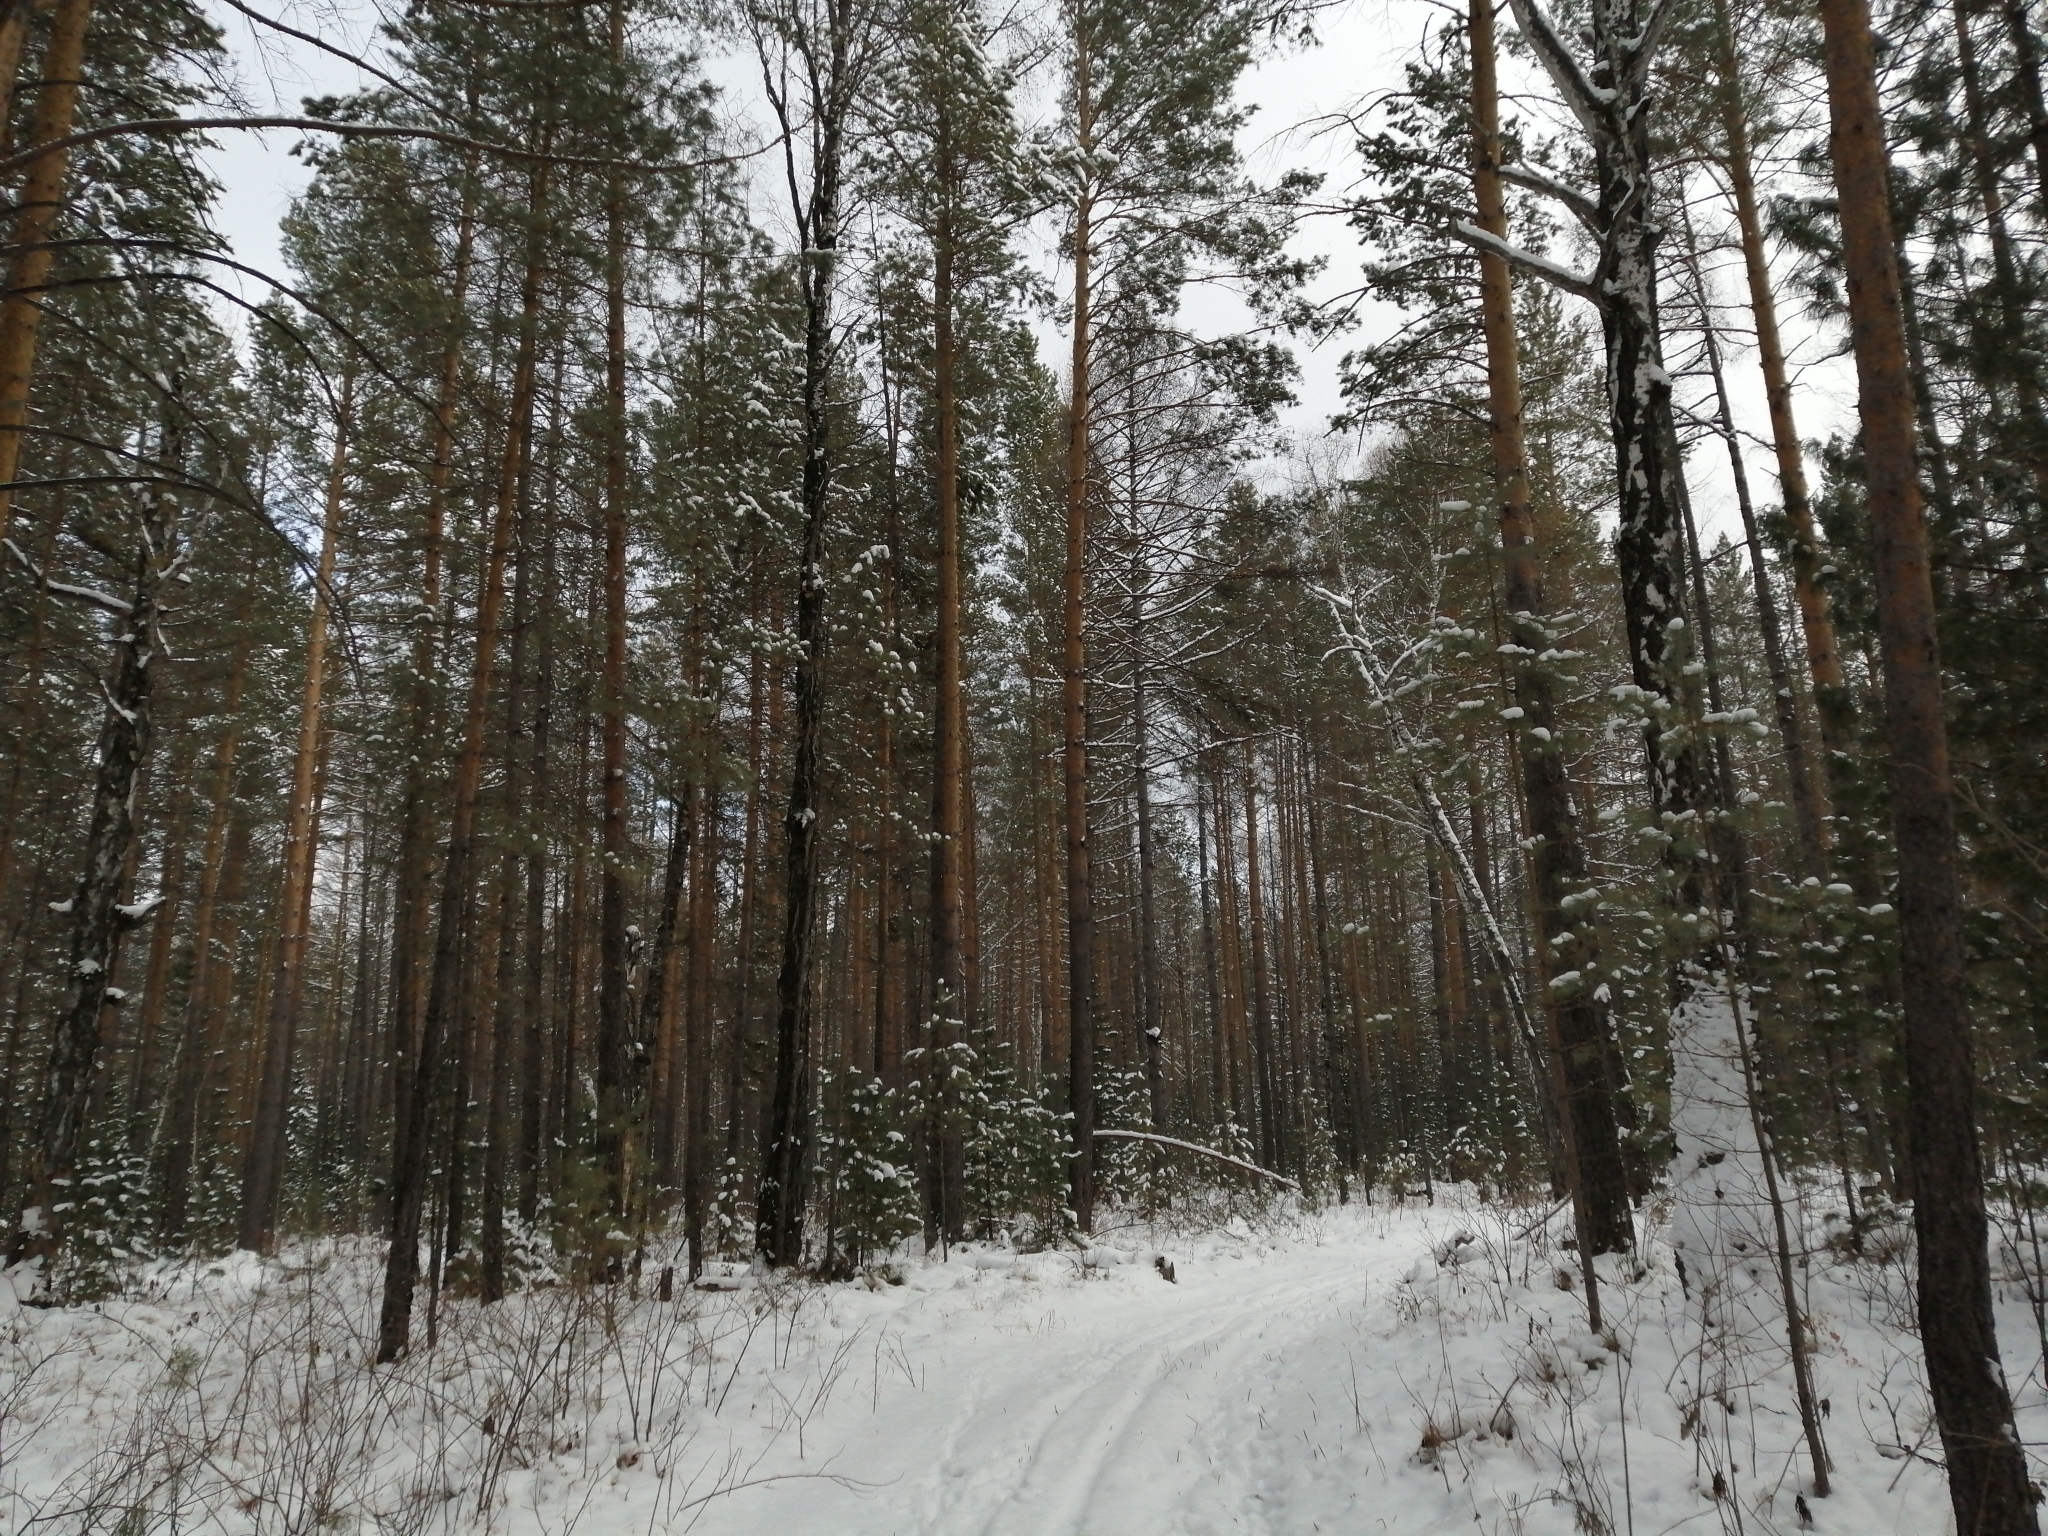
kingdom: Plantae
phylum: Tracheophyta
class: Pinopsida
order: Pinales
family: Pinaceae
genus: Pinus
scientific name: Pinus sylvestris
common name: Scots pine
